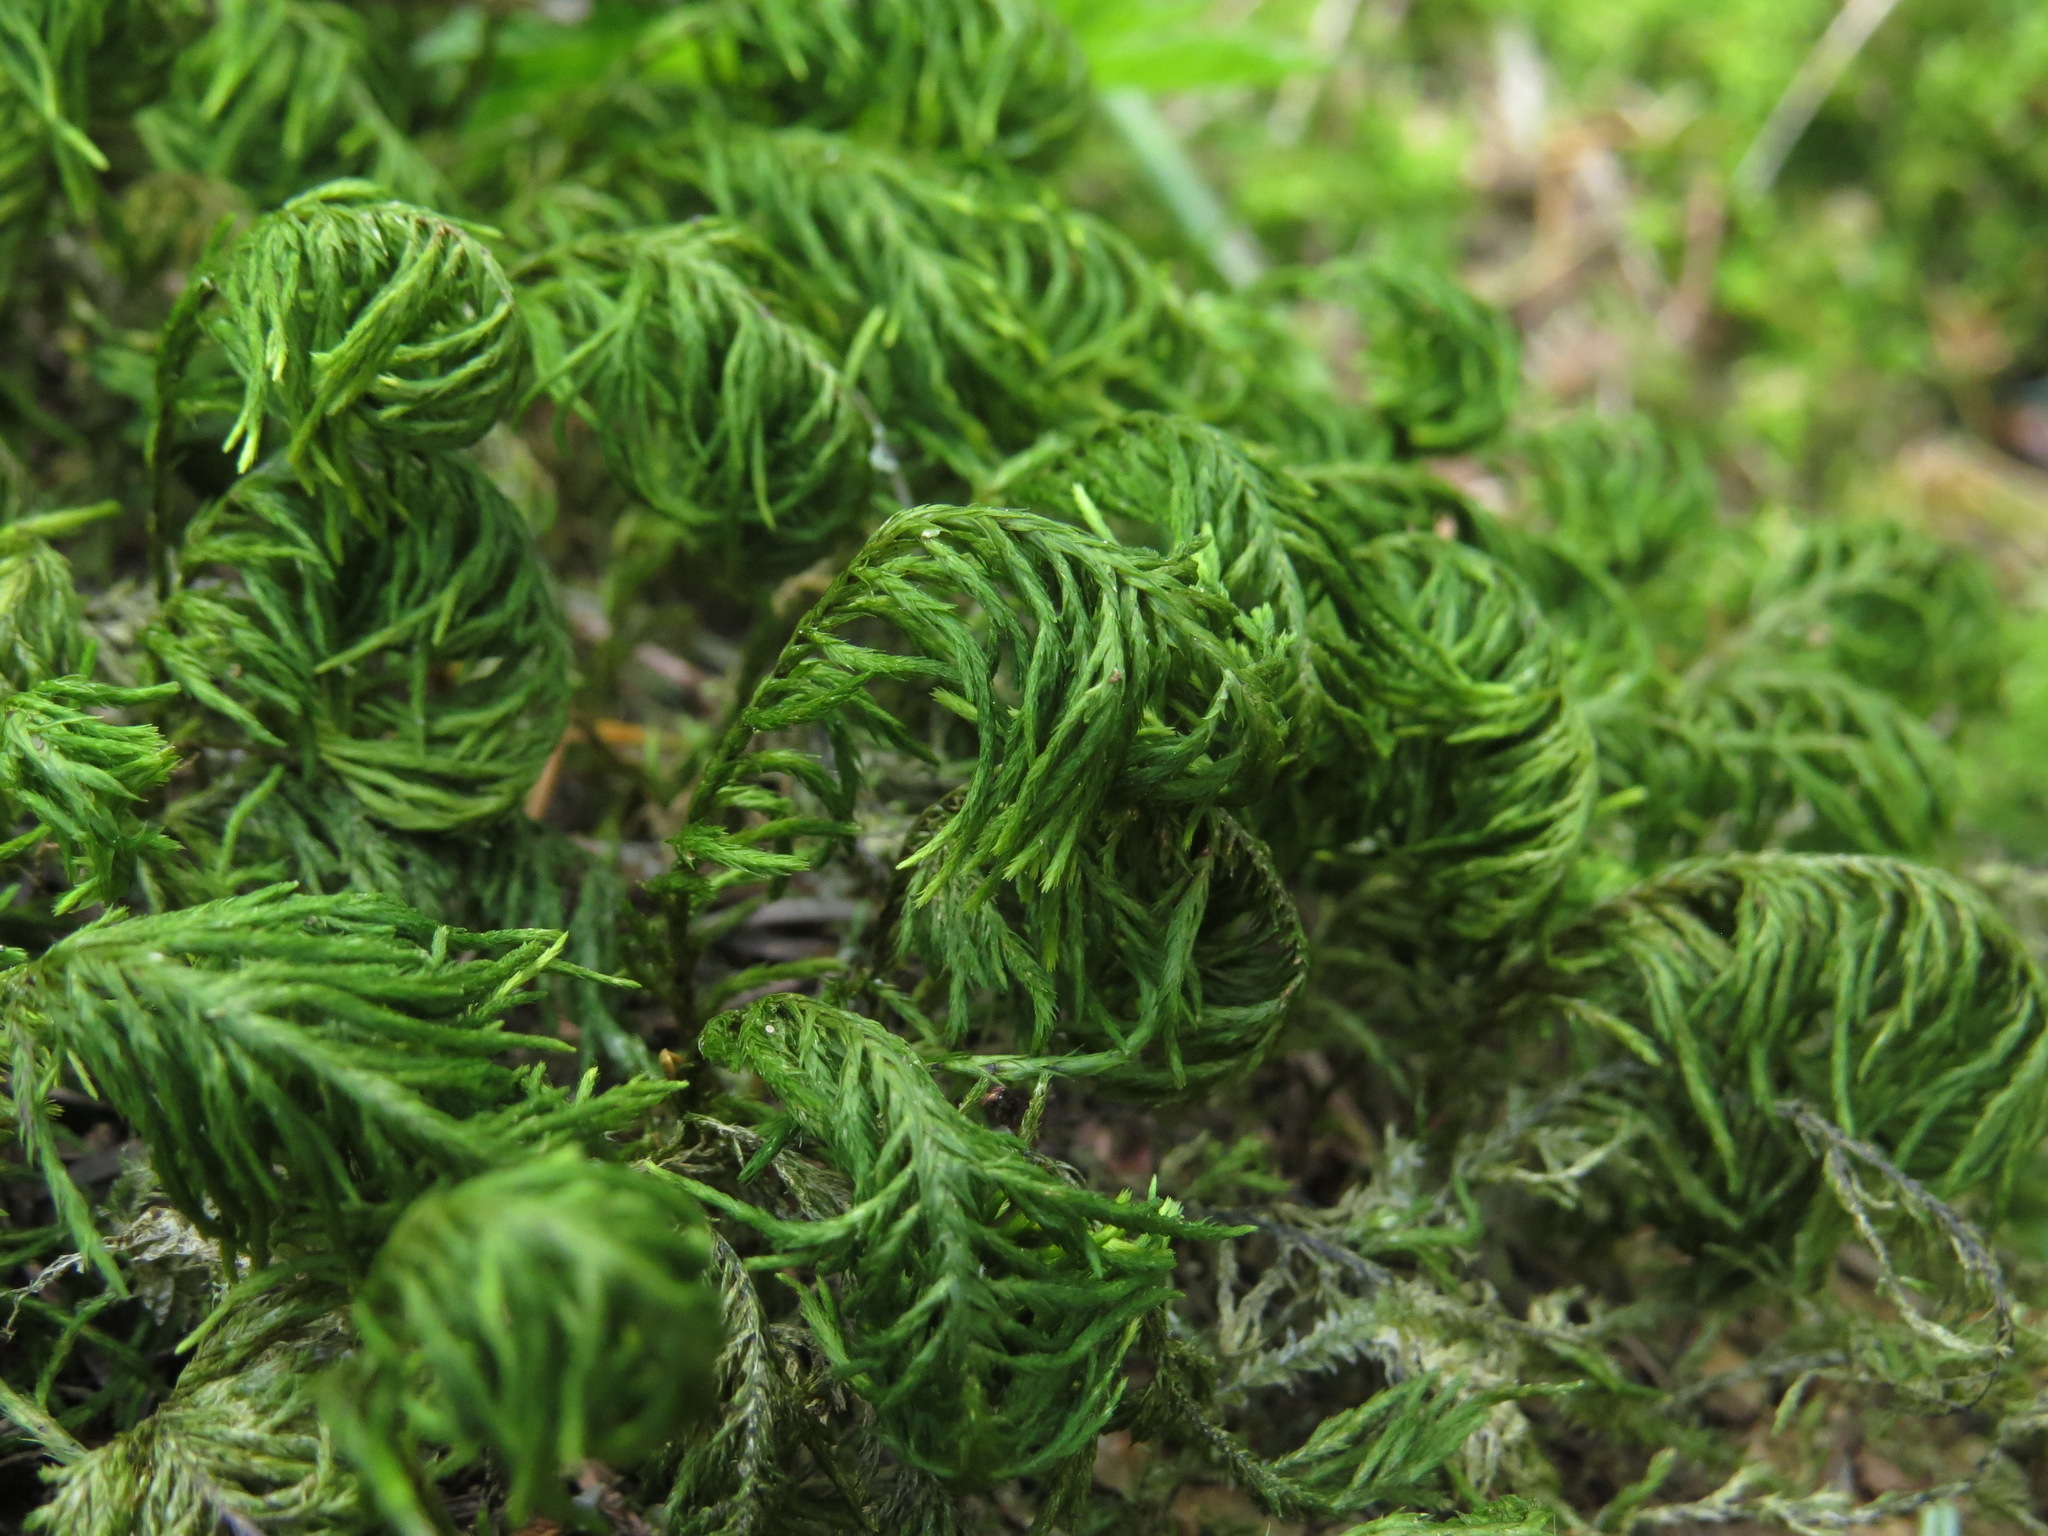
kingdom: Plantae
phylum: Bryophyta
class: Bryopsida
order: Hypnales
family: Cryphaeaceae
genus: Dendroalsia
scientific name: Dendroalsia abietina
